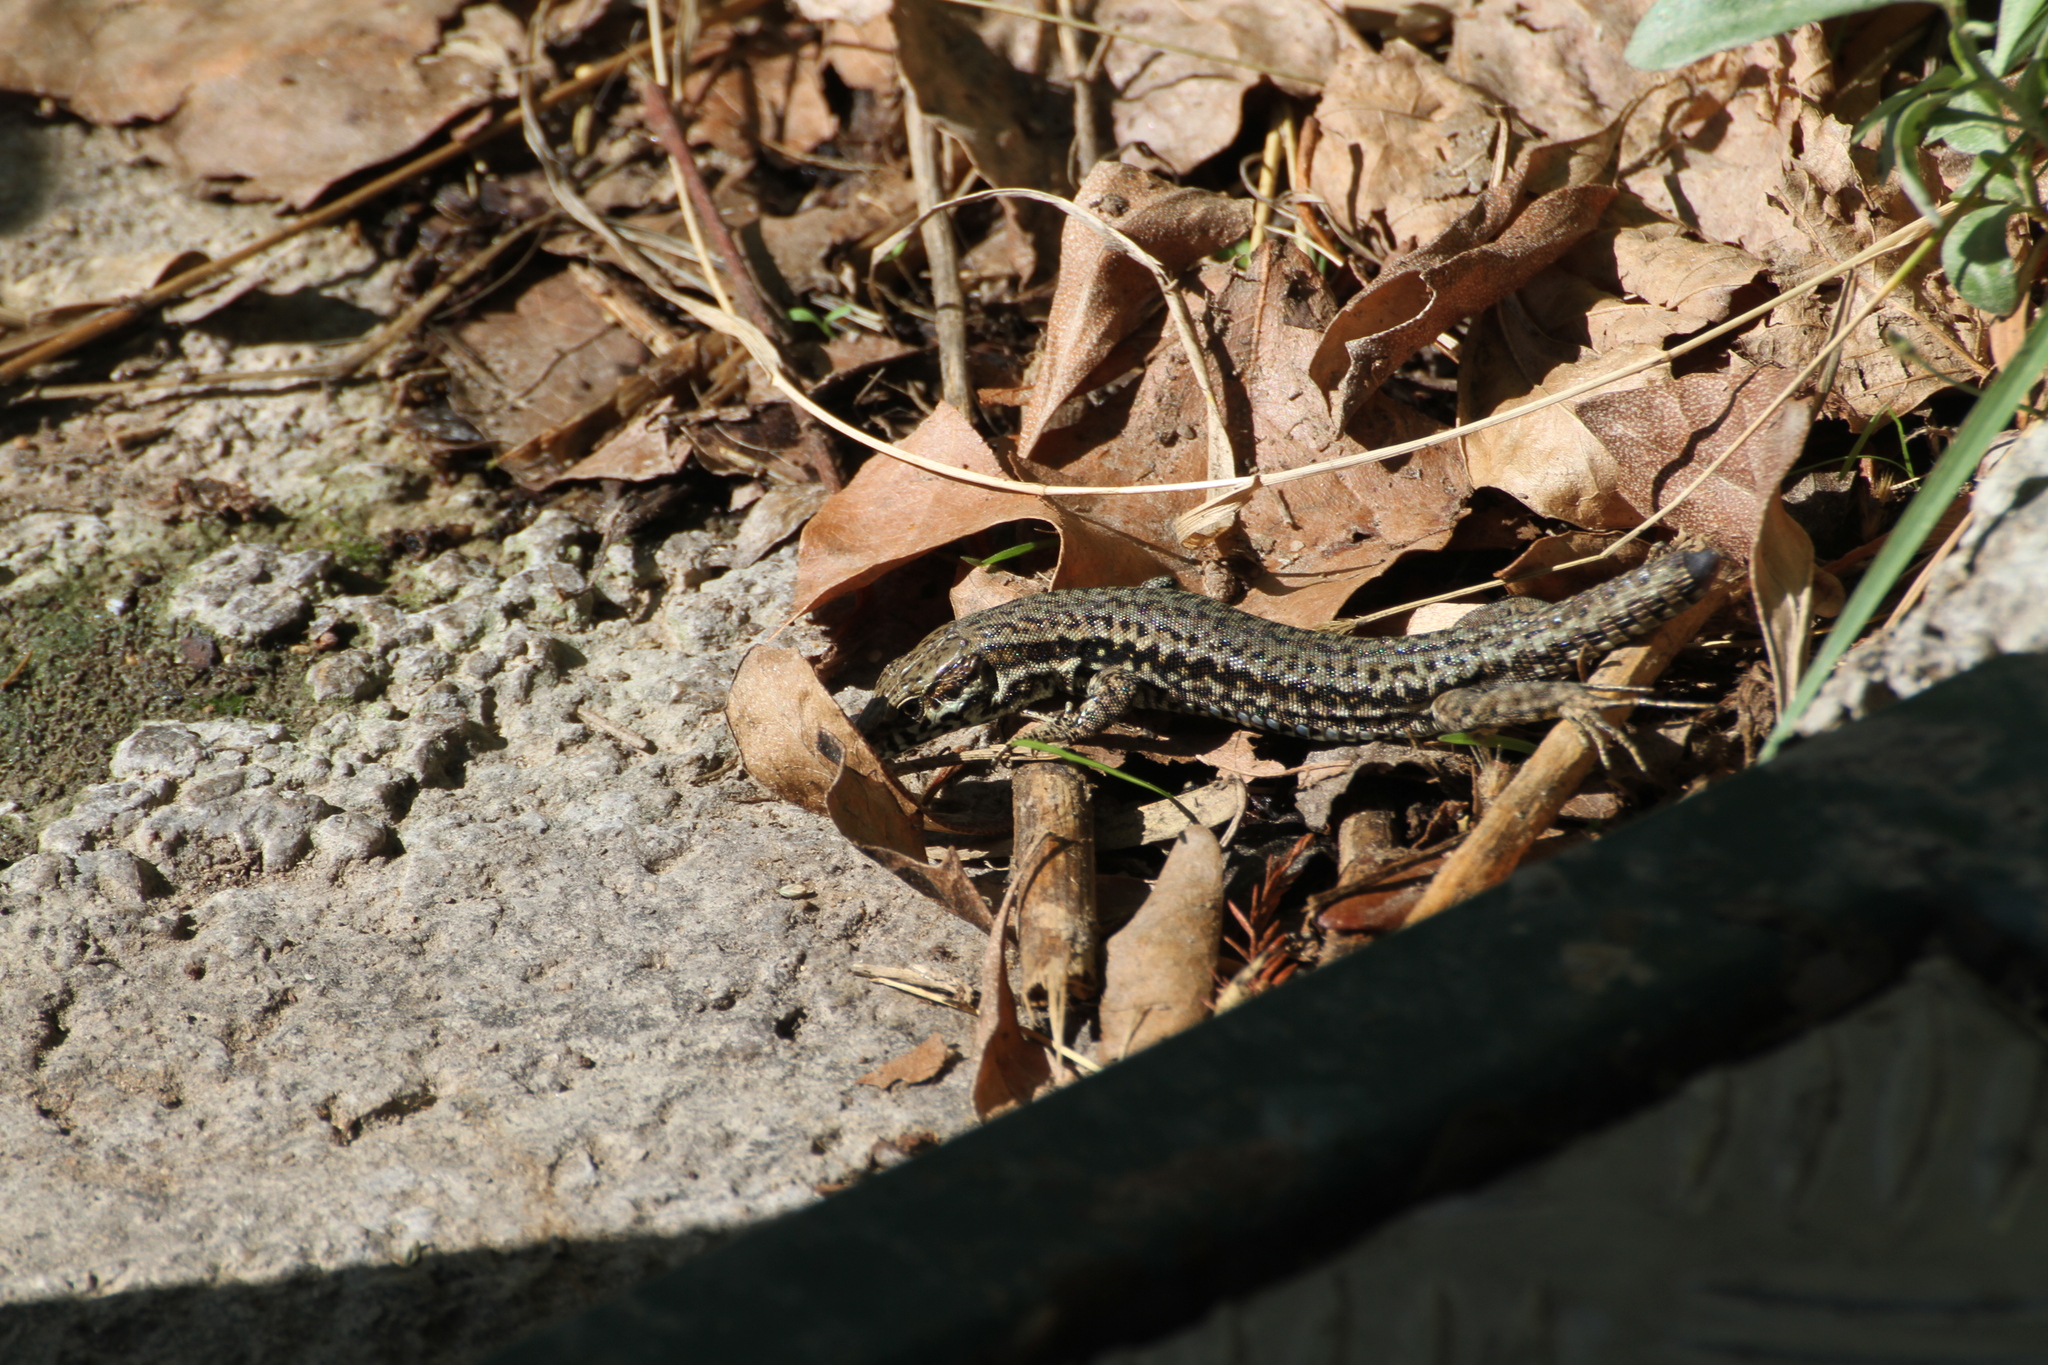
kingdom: Animalia
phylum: Chordata
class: Squamata
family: Lacertidae
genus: Podarcis
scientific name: Podarcis muralis
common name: Common wall lizard
